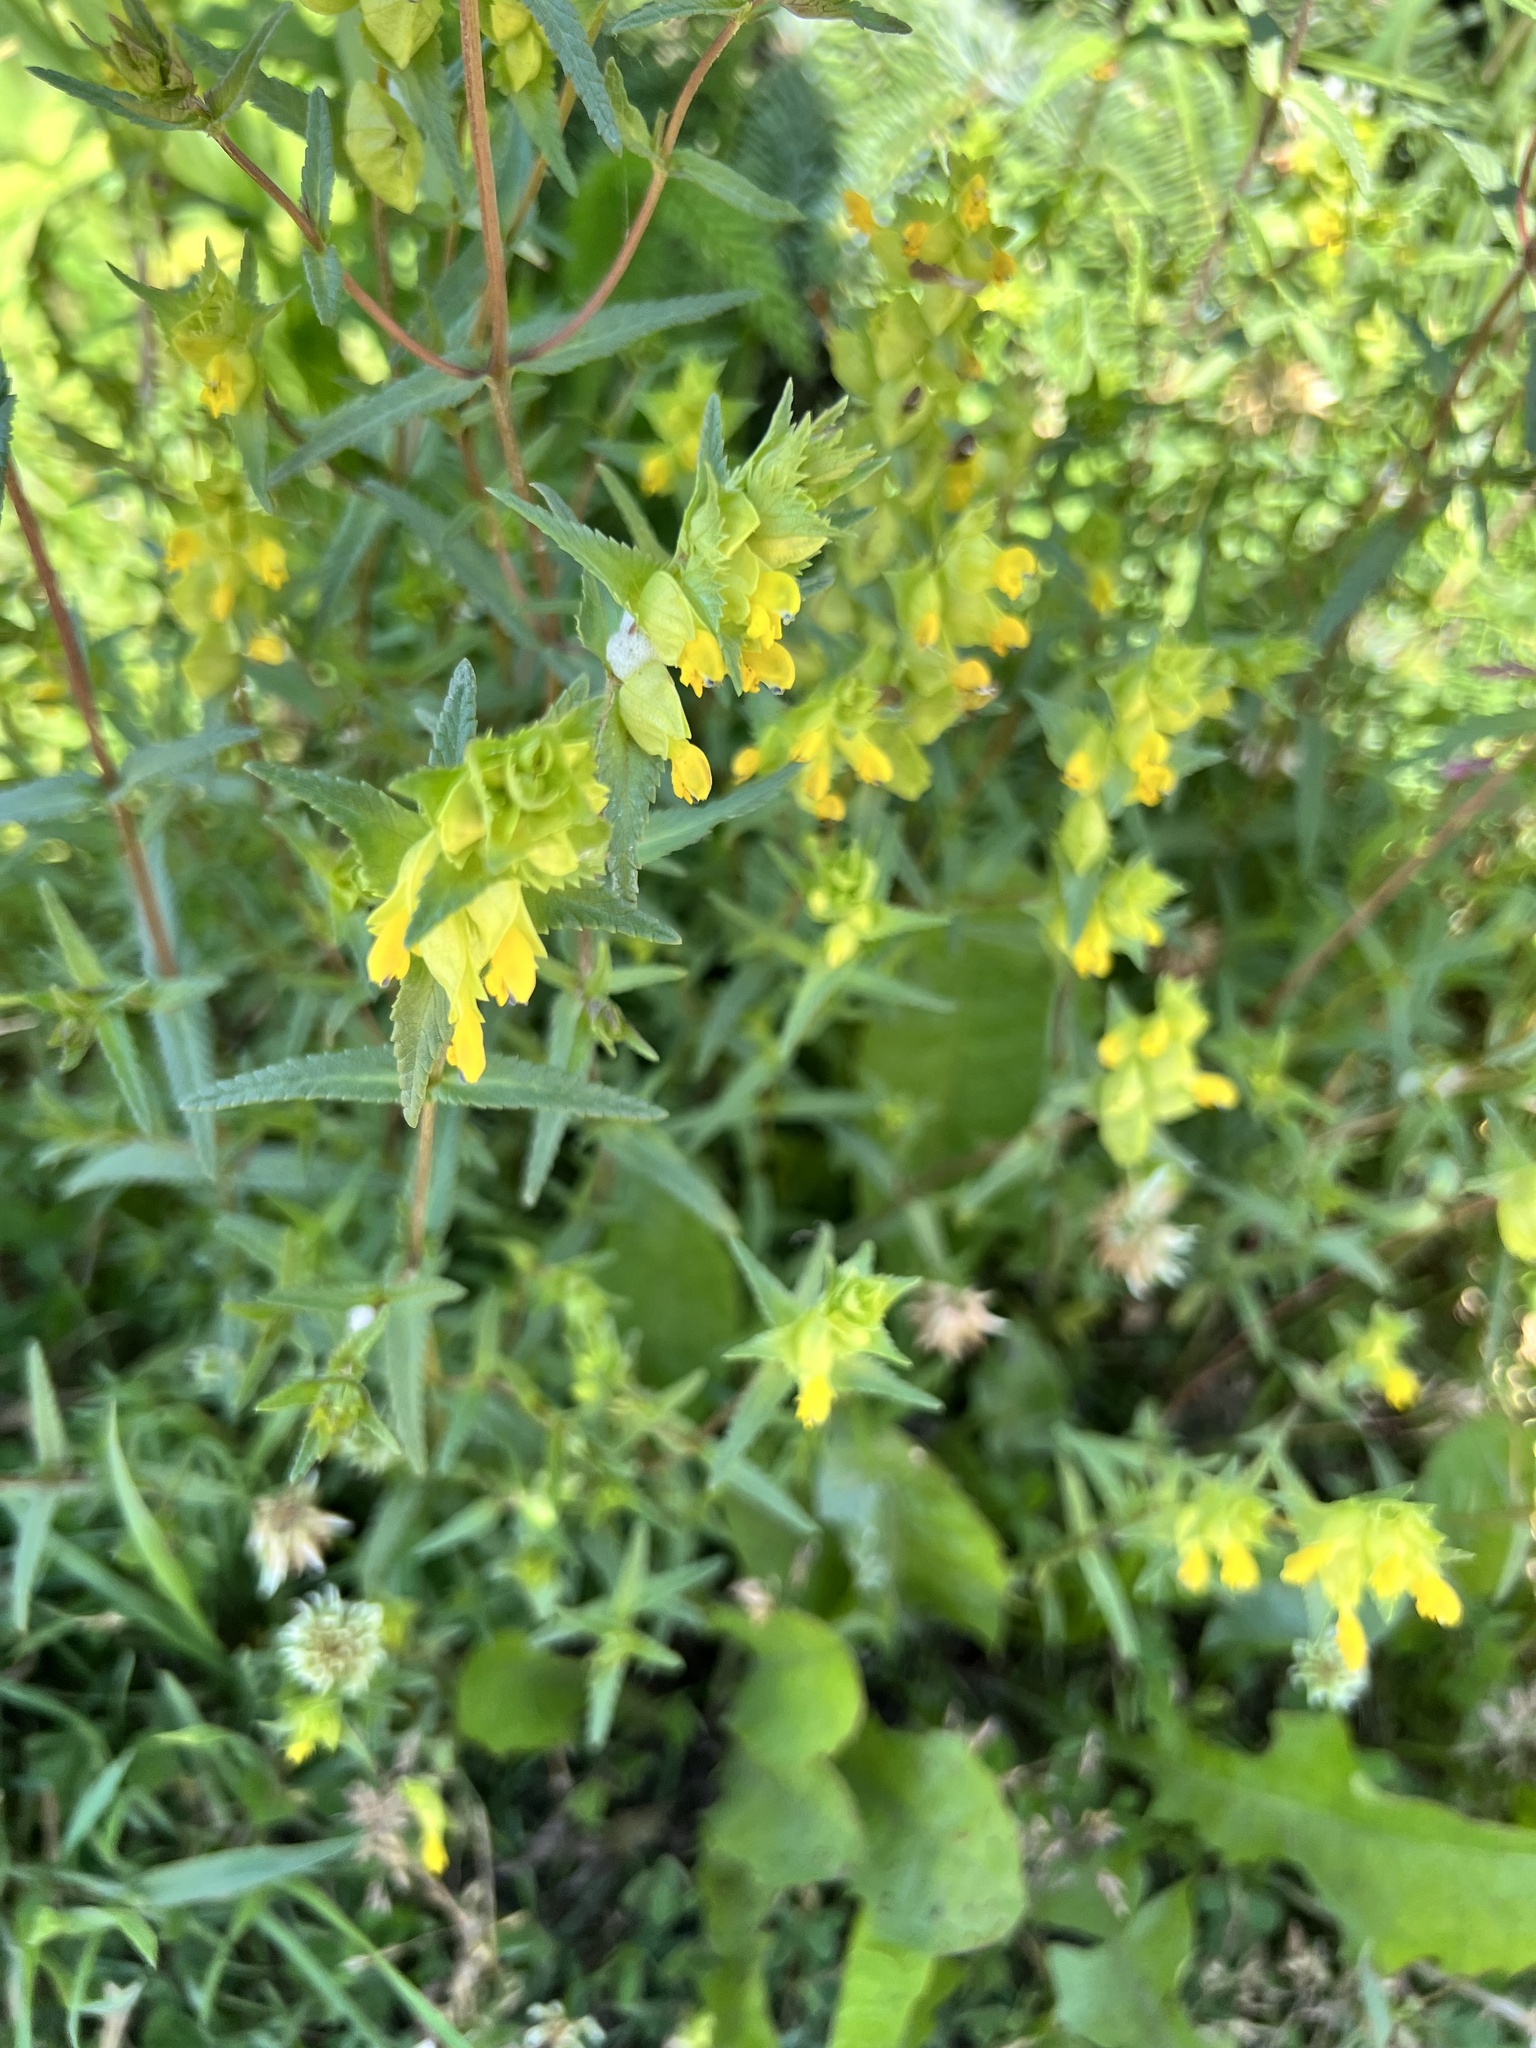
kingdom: Plantae
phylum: Tracheophyta
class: Magnoliopsida
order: Lamiales
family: Orobanchaceae
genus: Rhinanthus
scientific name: Rhinanthus minor
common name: Yellow-rattle
